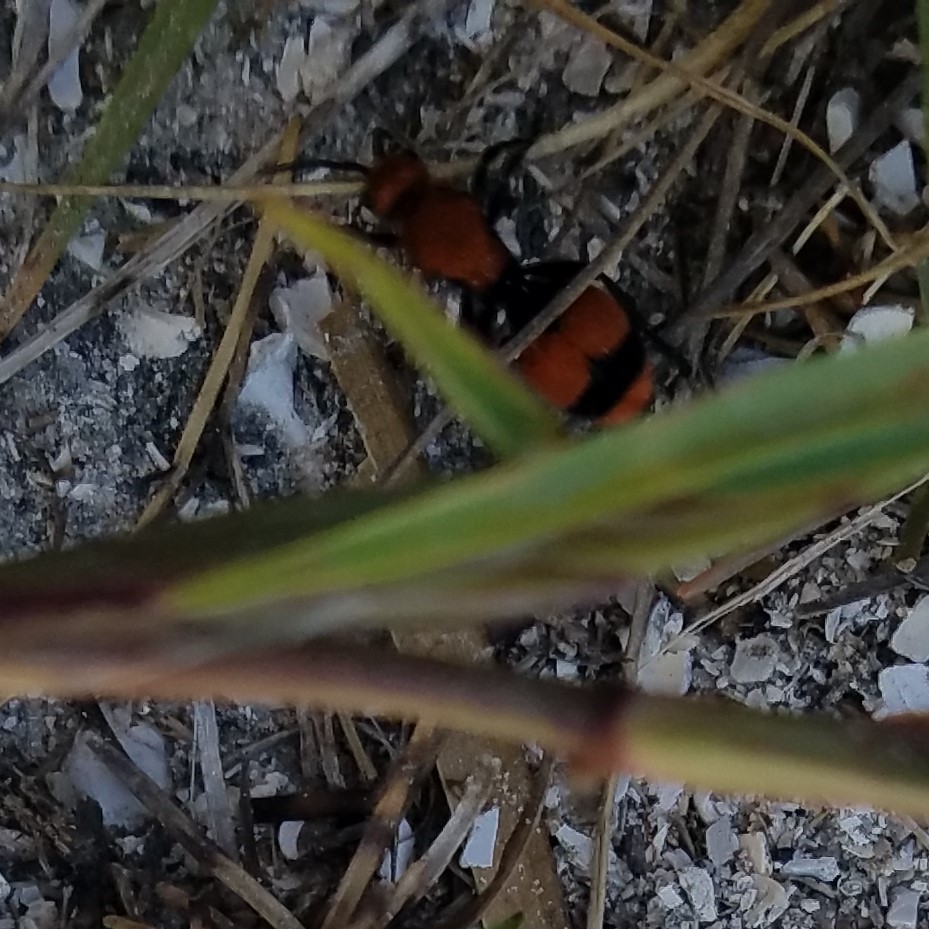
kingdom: Animalia
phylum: Arthropoda
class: Insecta
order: Hymenoptera
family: Mutillidae
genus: Dasymutilla
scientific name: Dasymutilla occidentalis
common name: Common eastern velvet ant
